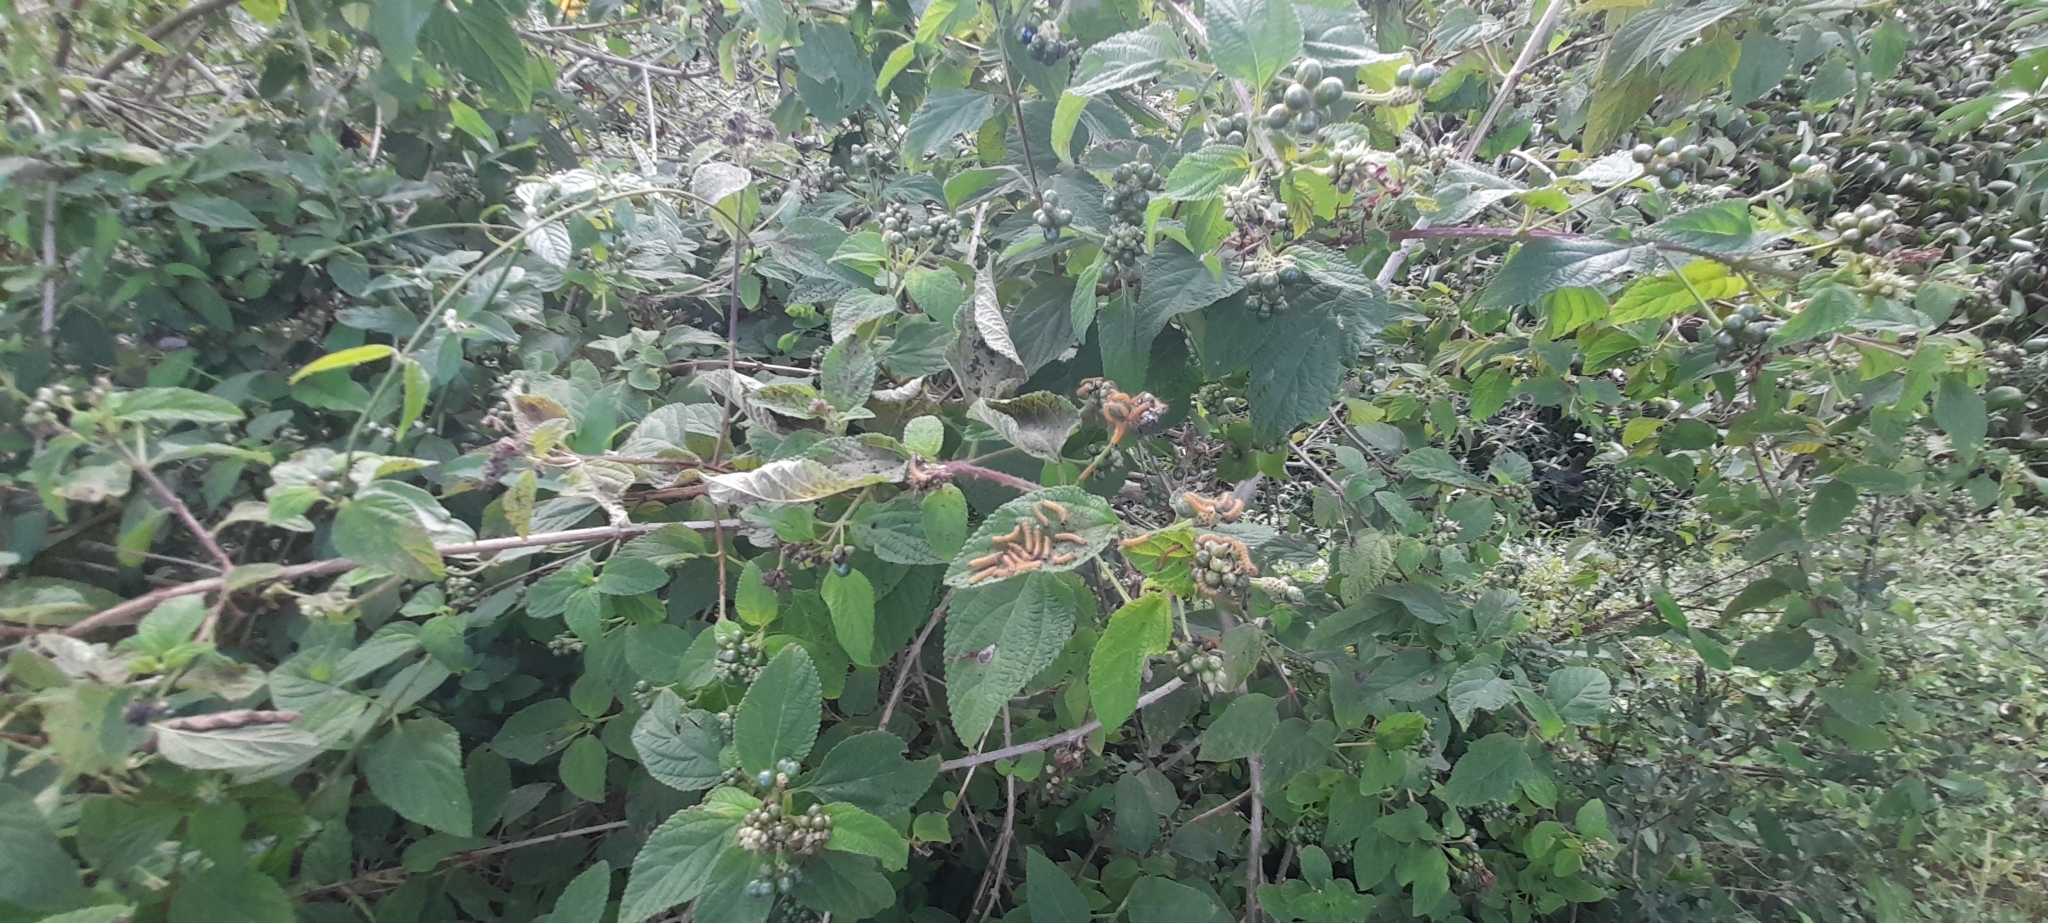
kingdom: Plantae
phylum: Tracheophyta
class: Magnoliopsida
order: Lamiales
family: Verbenaceae
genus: Lantana
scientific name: Lantana camara
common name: Lantana
